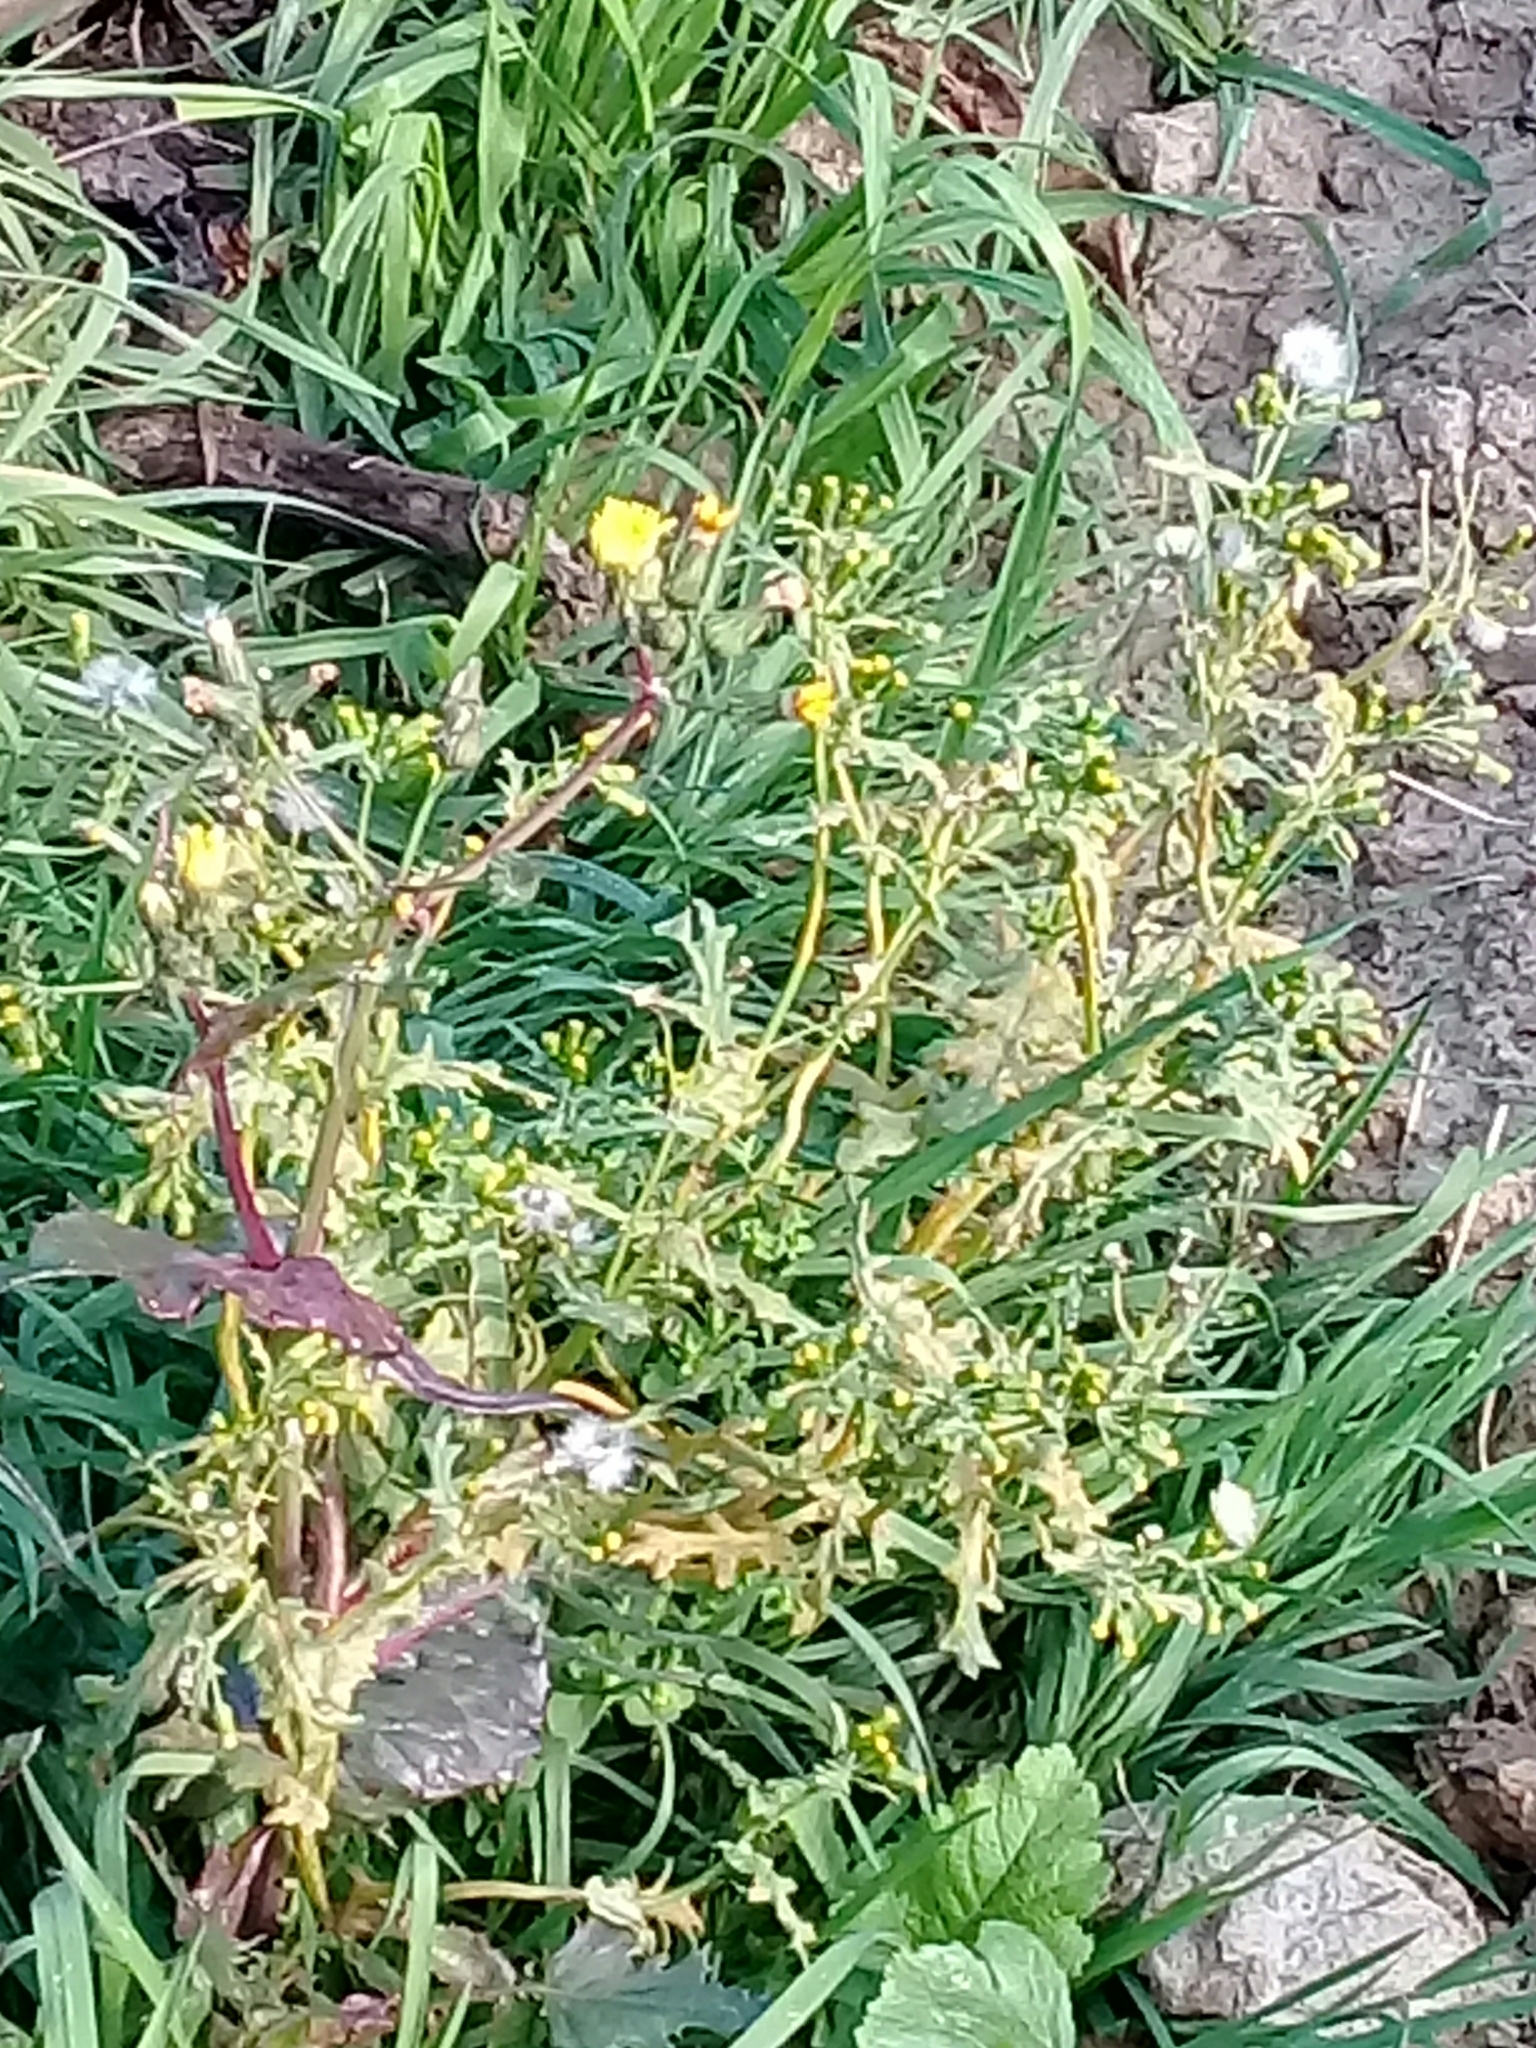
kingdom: Plantae
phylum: Tracheophyta
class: Magnoliopsida
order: Asterales
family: Asteraceae
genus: Senecio
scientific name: Senecio vulgaris
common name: Old-man-in-the-spring
